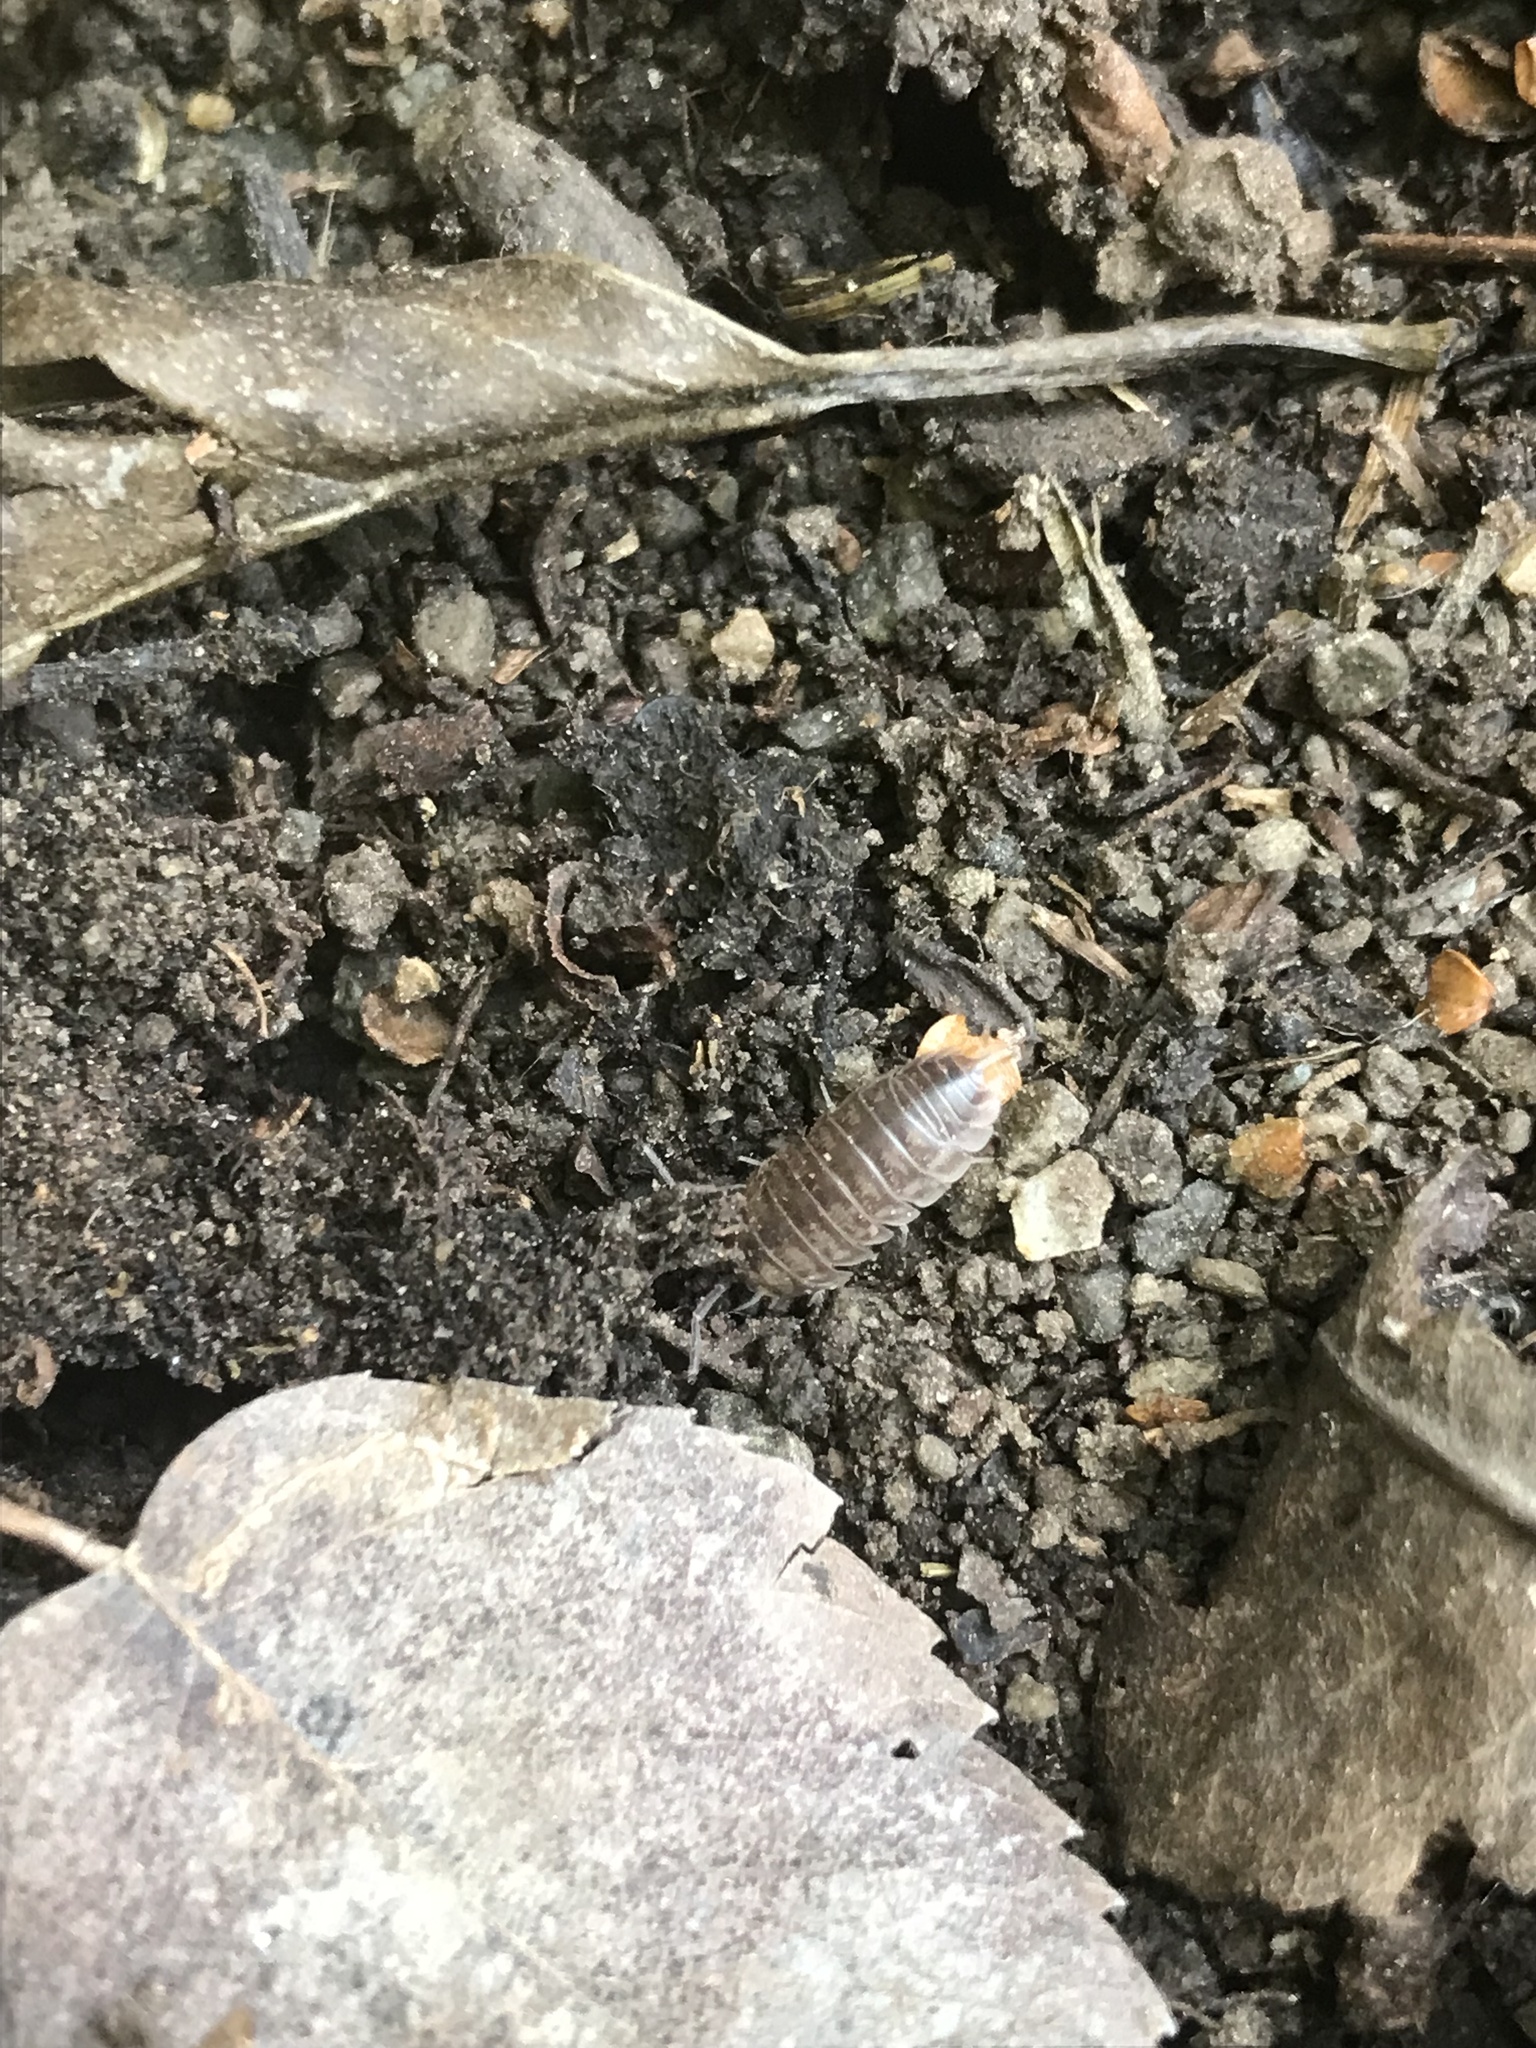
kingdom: Animalia
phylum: Arthropoda
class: Malacostraca
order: Isopoda
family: Cylisticidae
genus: Cylisticus
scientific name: Cylisticus convexus
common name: Curly woodlouse
